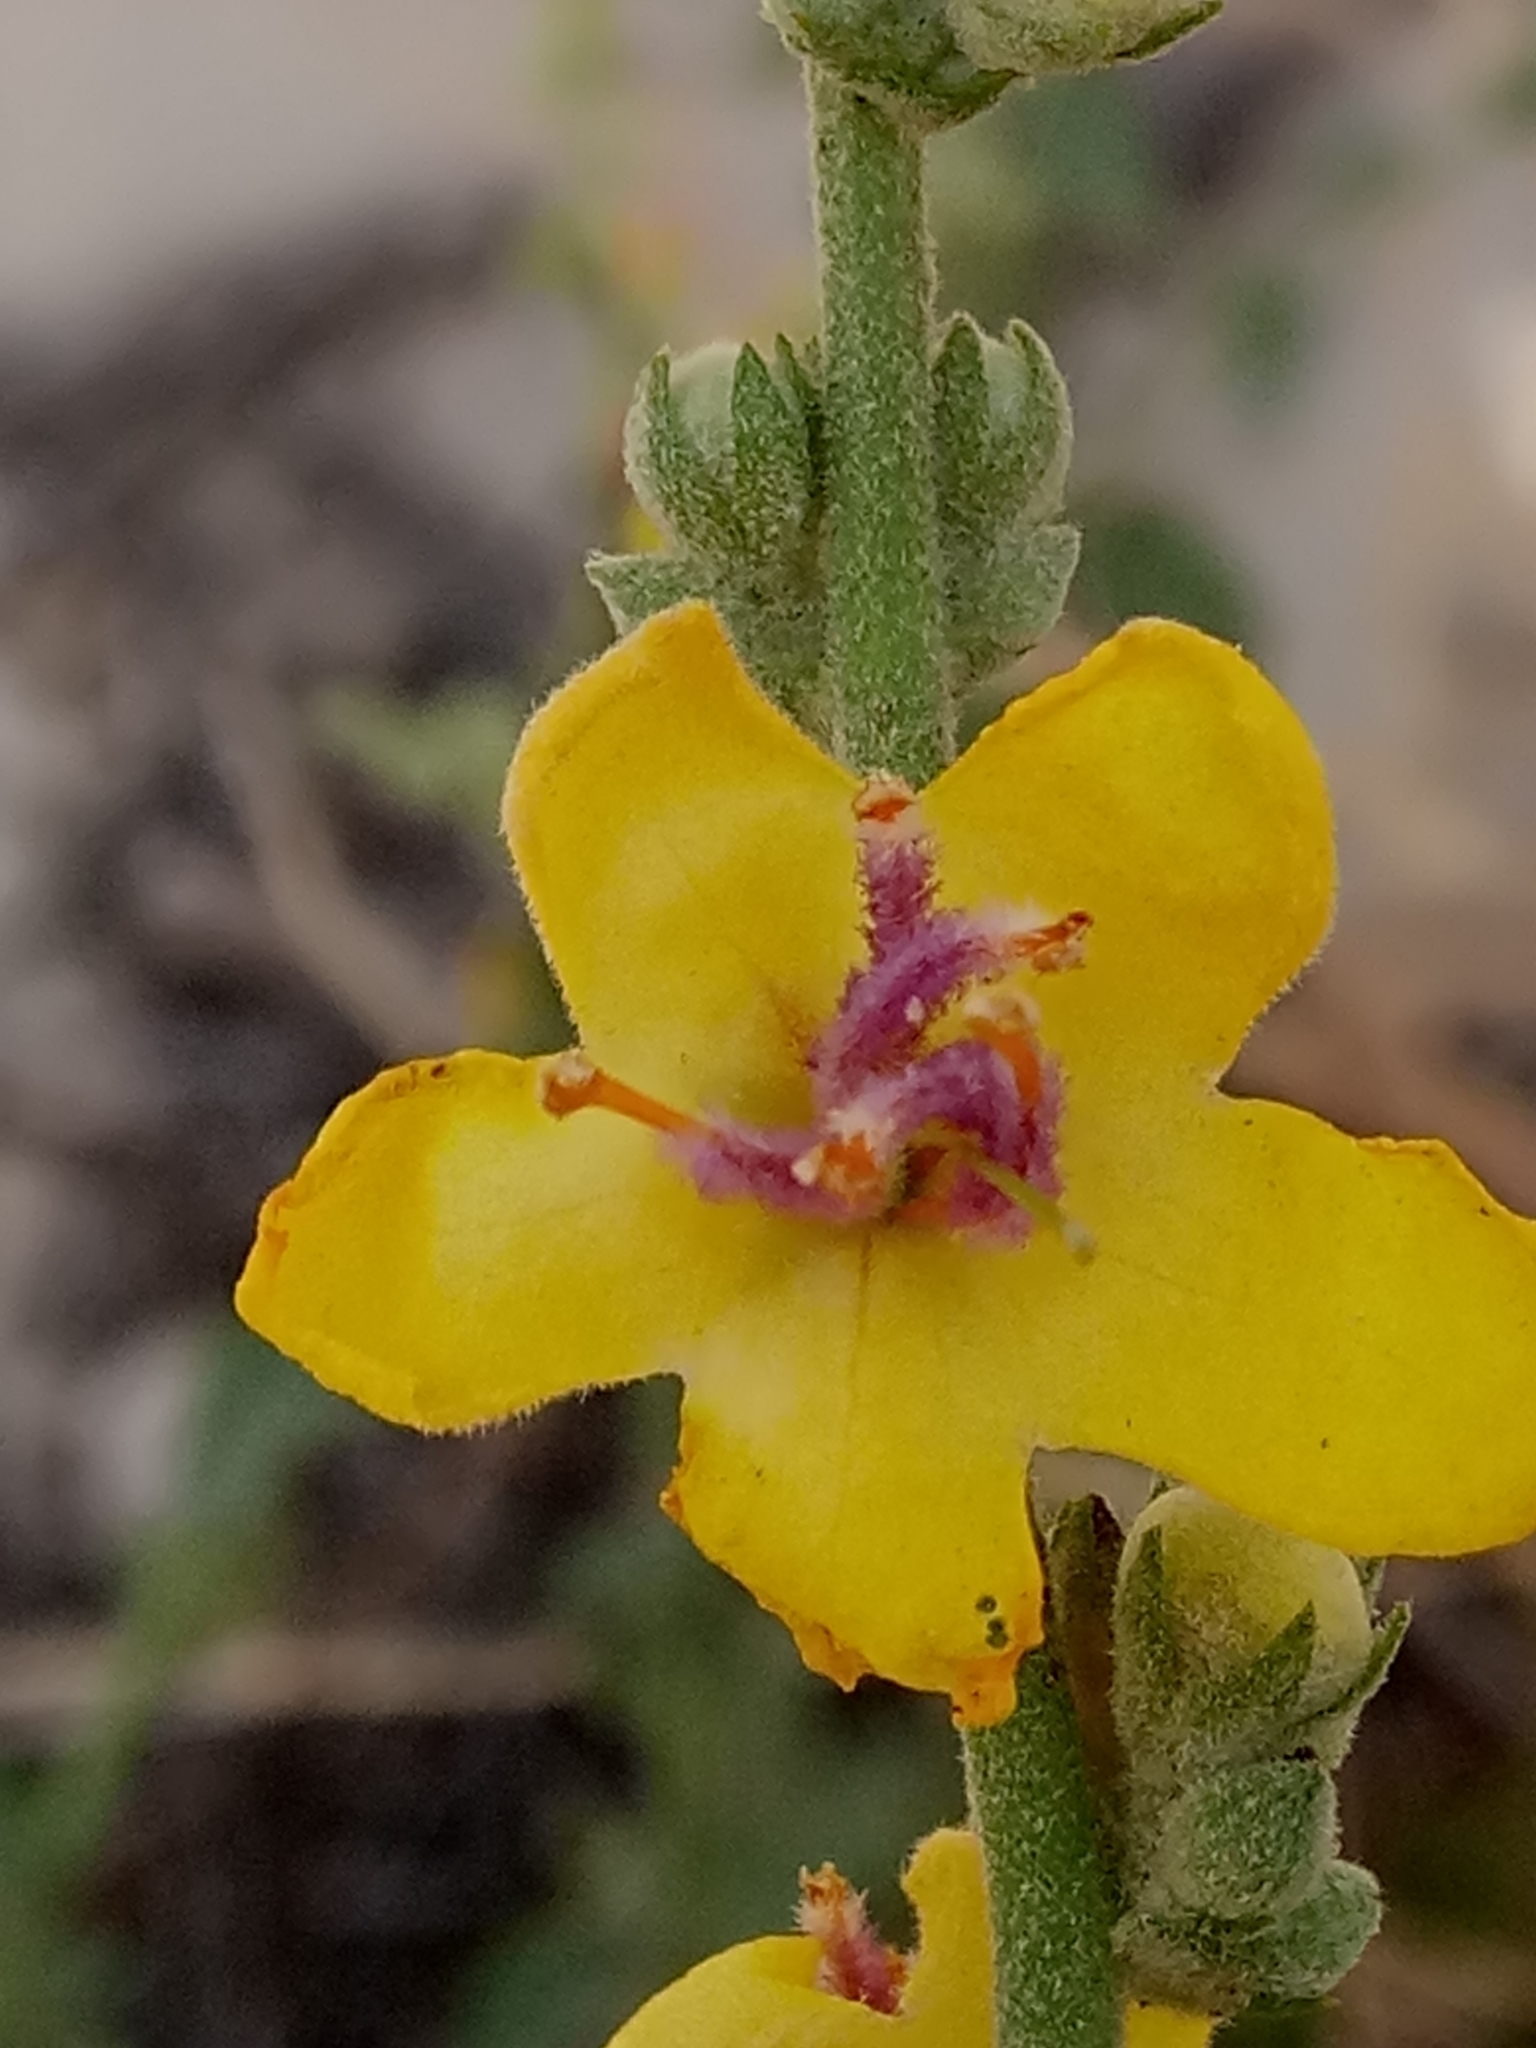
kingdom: Plantae
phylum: Tracheophyta
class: Magnoliopsida
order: Lamiales
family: Scrophulariaceae
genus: Verbascum
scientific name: Verbascum sinuatum
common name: Wavyleaf mullein
